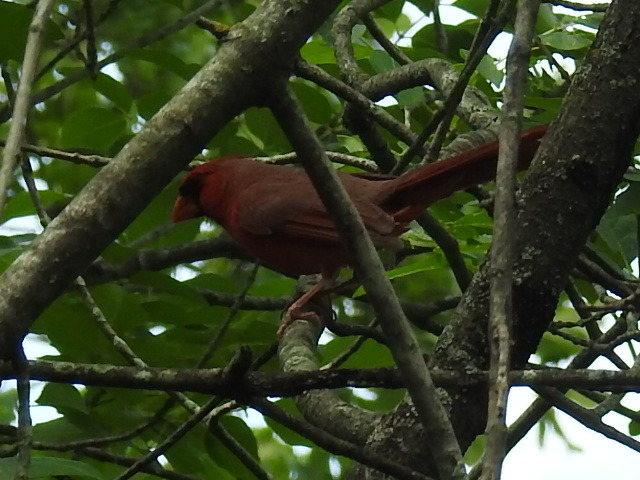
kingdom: Animalia
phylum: Chordata
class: Aves
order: Passeriformes
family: Cardinalidae
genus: Cardinalis
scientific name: Cardinalis cardinalis
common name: Northern cardinal
